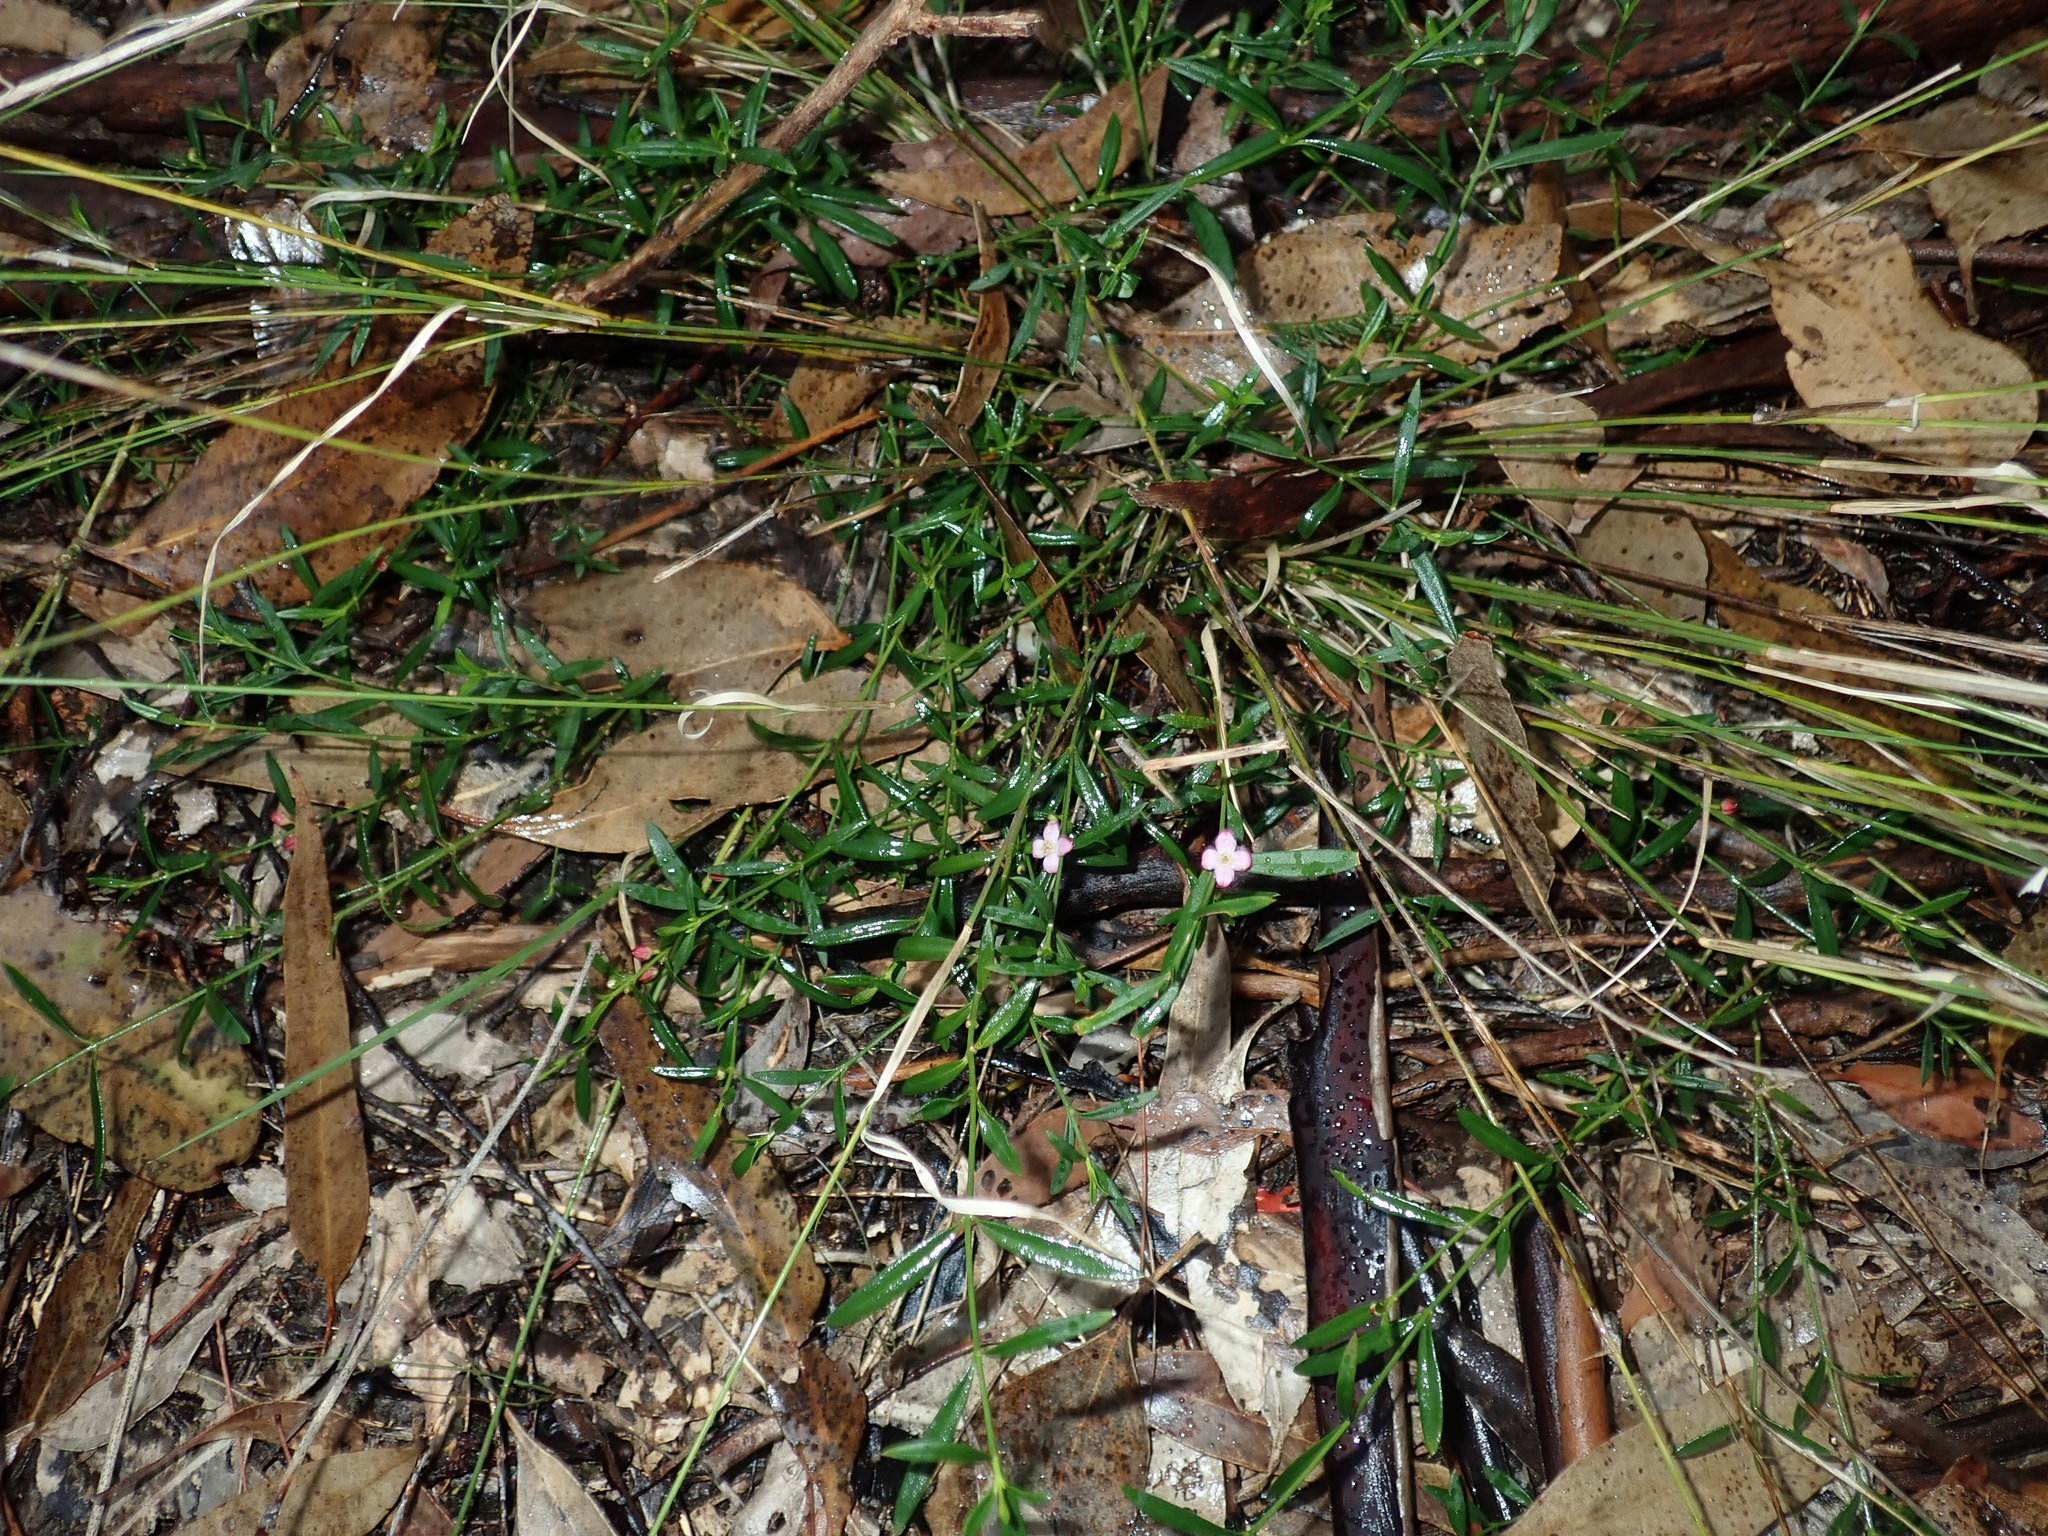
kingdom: Plantae
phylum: Tracheophyta
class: Magnoliopsida
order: Sapindales
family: Rutaceae
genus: Cyanothamnus
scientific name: Cyanothamnus polygalifolius
